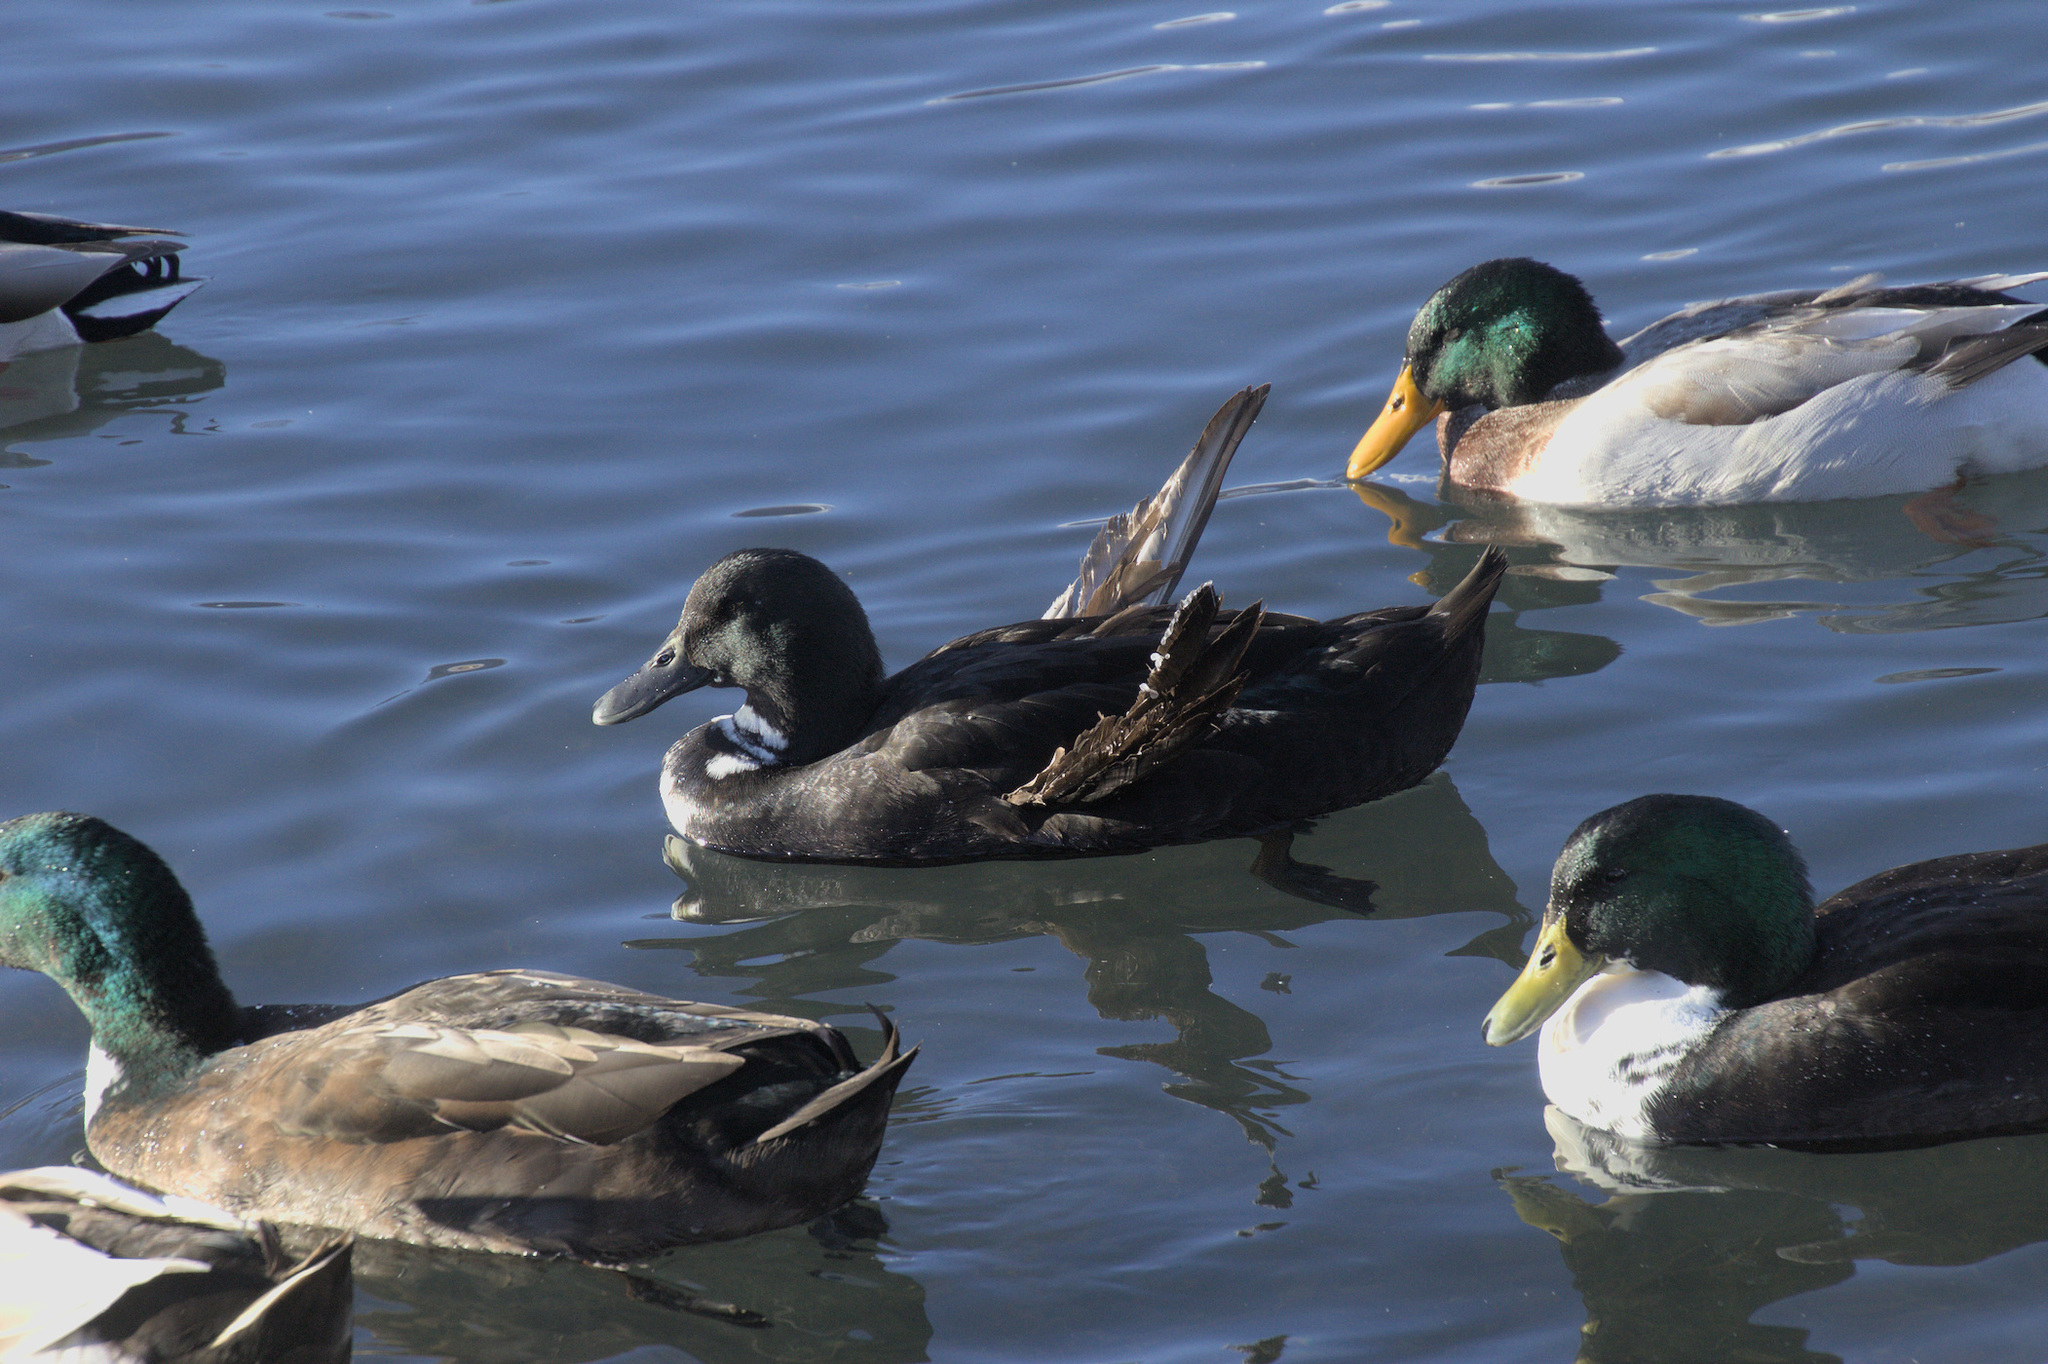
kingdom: Animalia
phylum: Chordata
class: Aves
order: Anseriformes
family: Anatidae
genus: Anas
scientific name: Anas platyrhynchos
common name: Mallard
